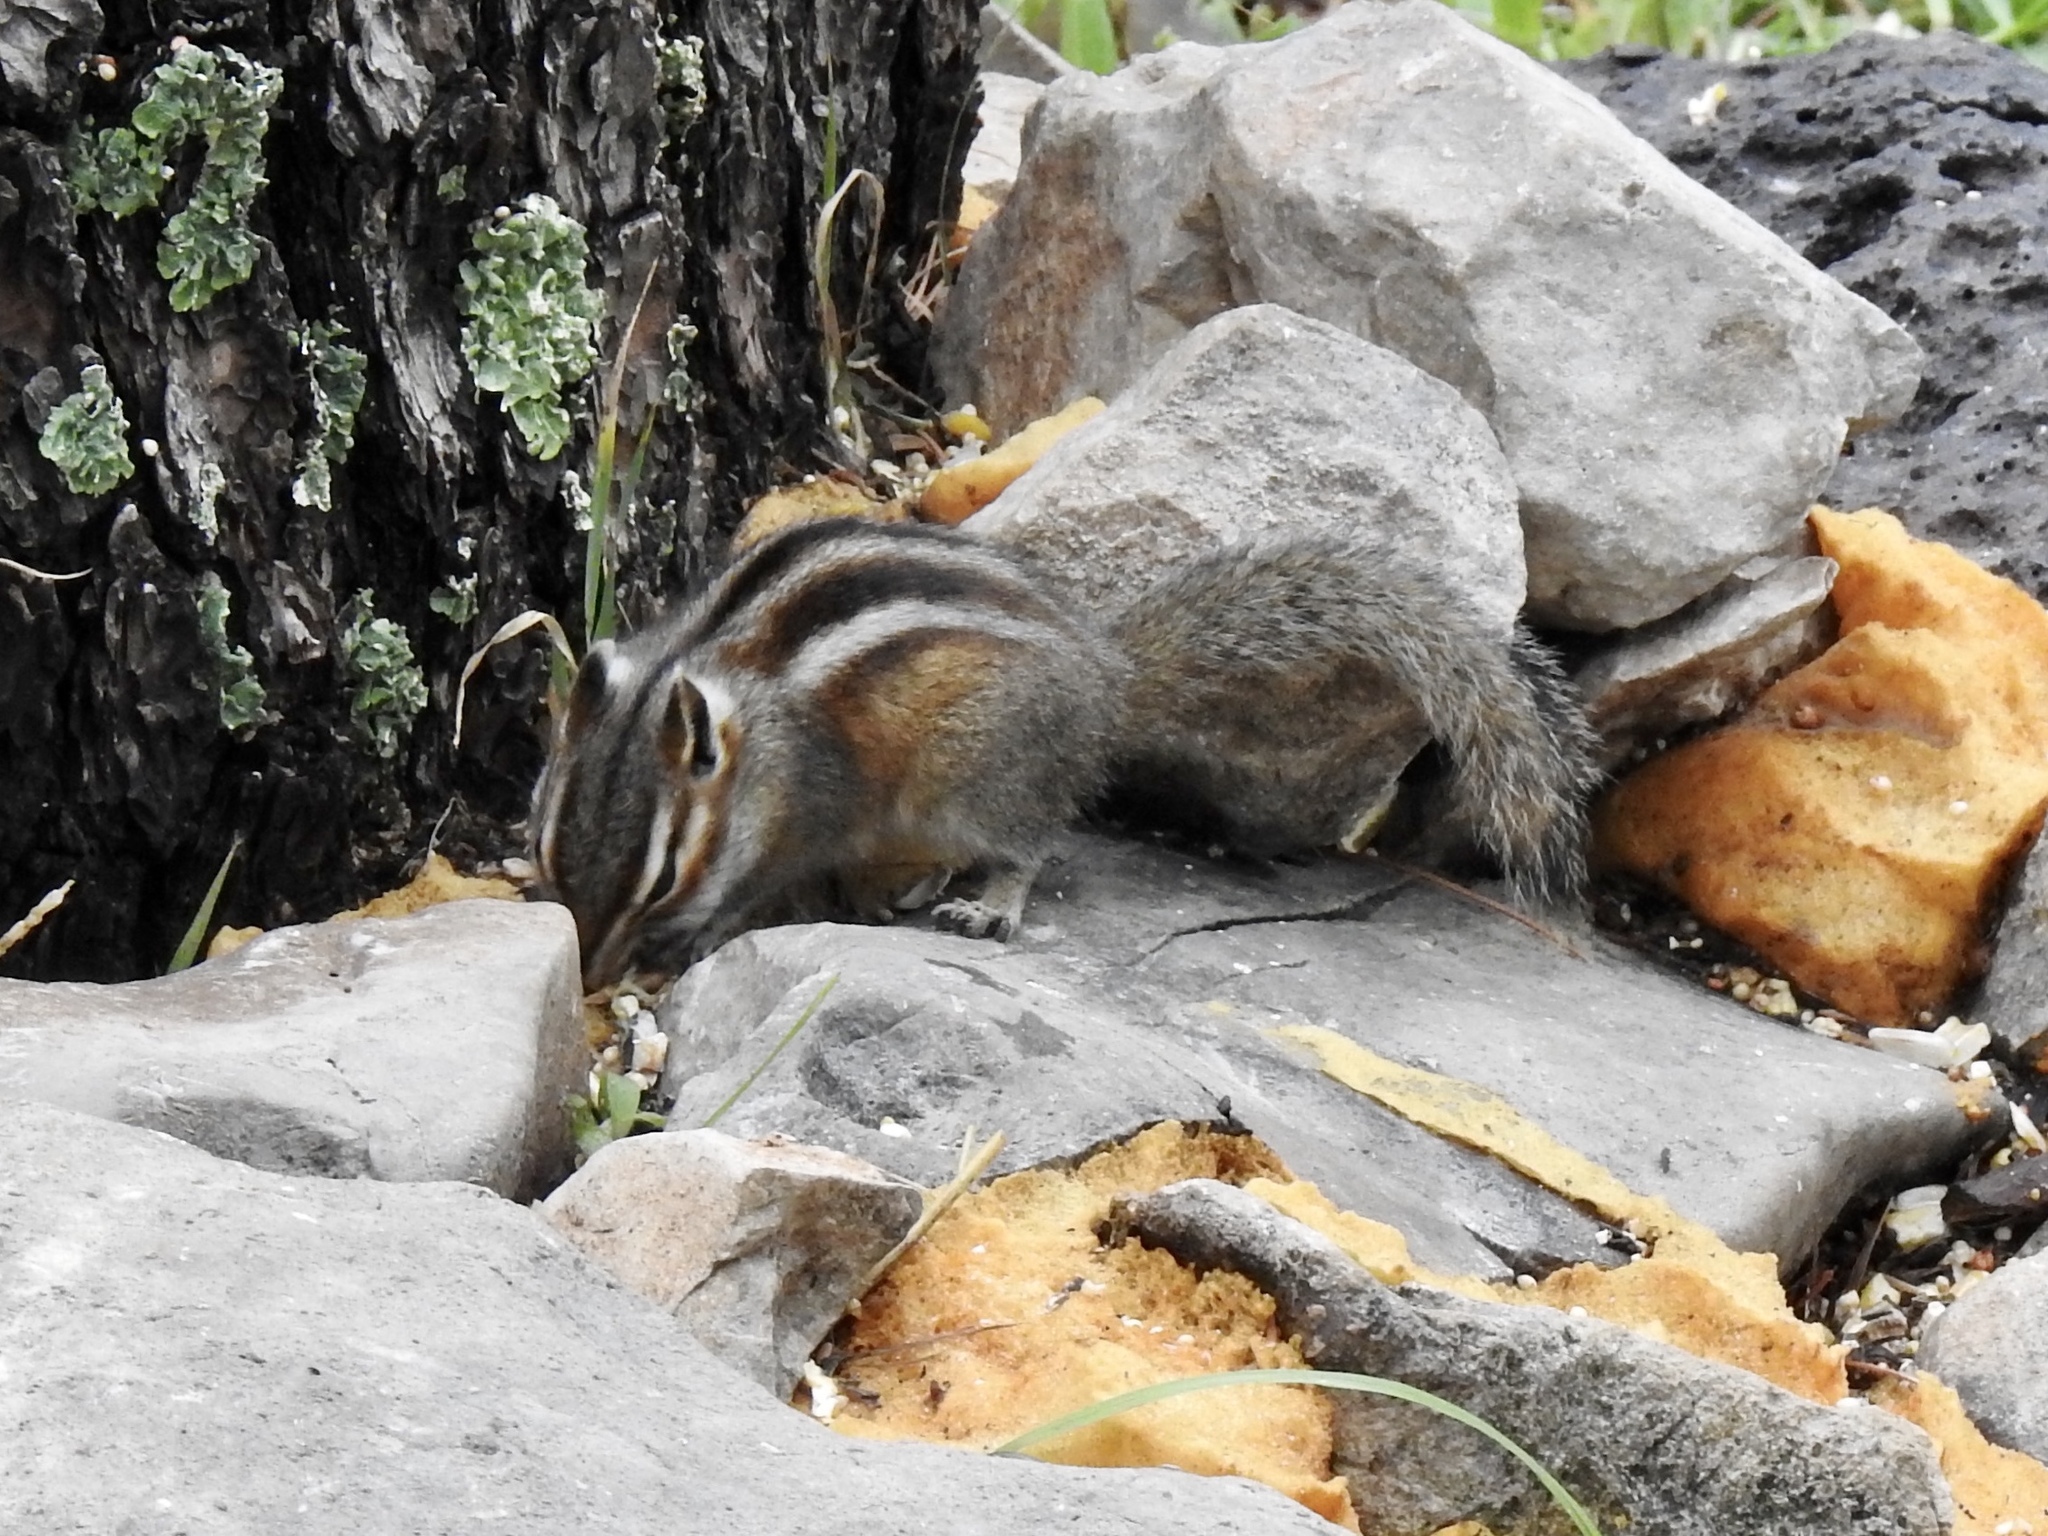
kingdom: Animalia
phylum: Chordata
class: Mammalia
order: Rodentia
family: Sciuridae
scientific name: Sciuridae
